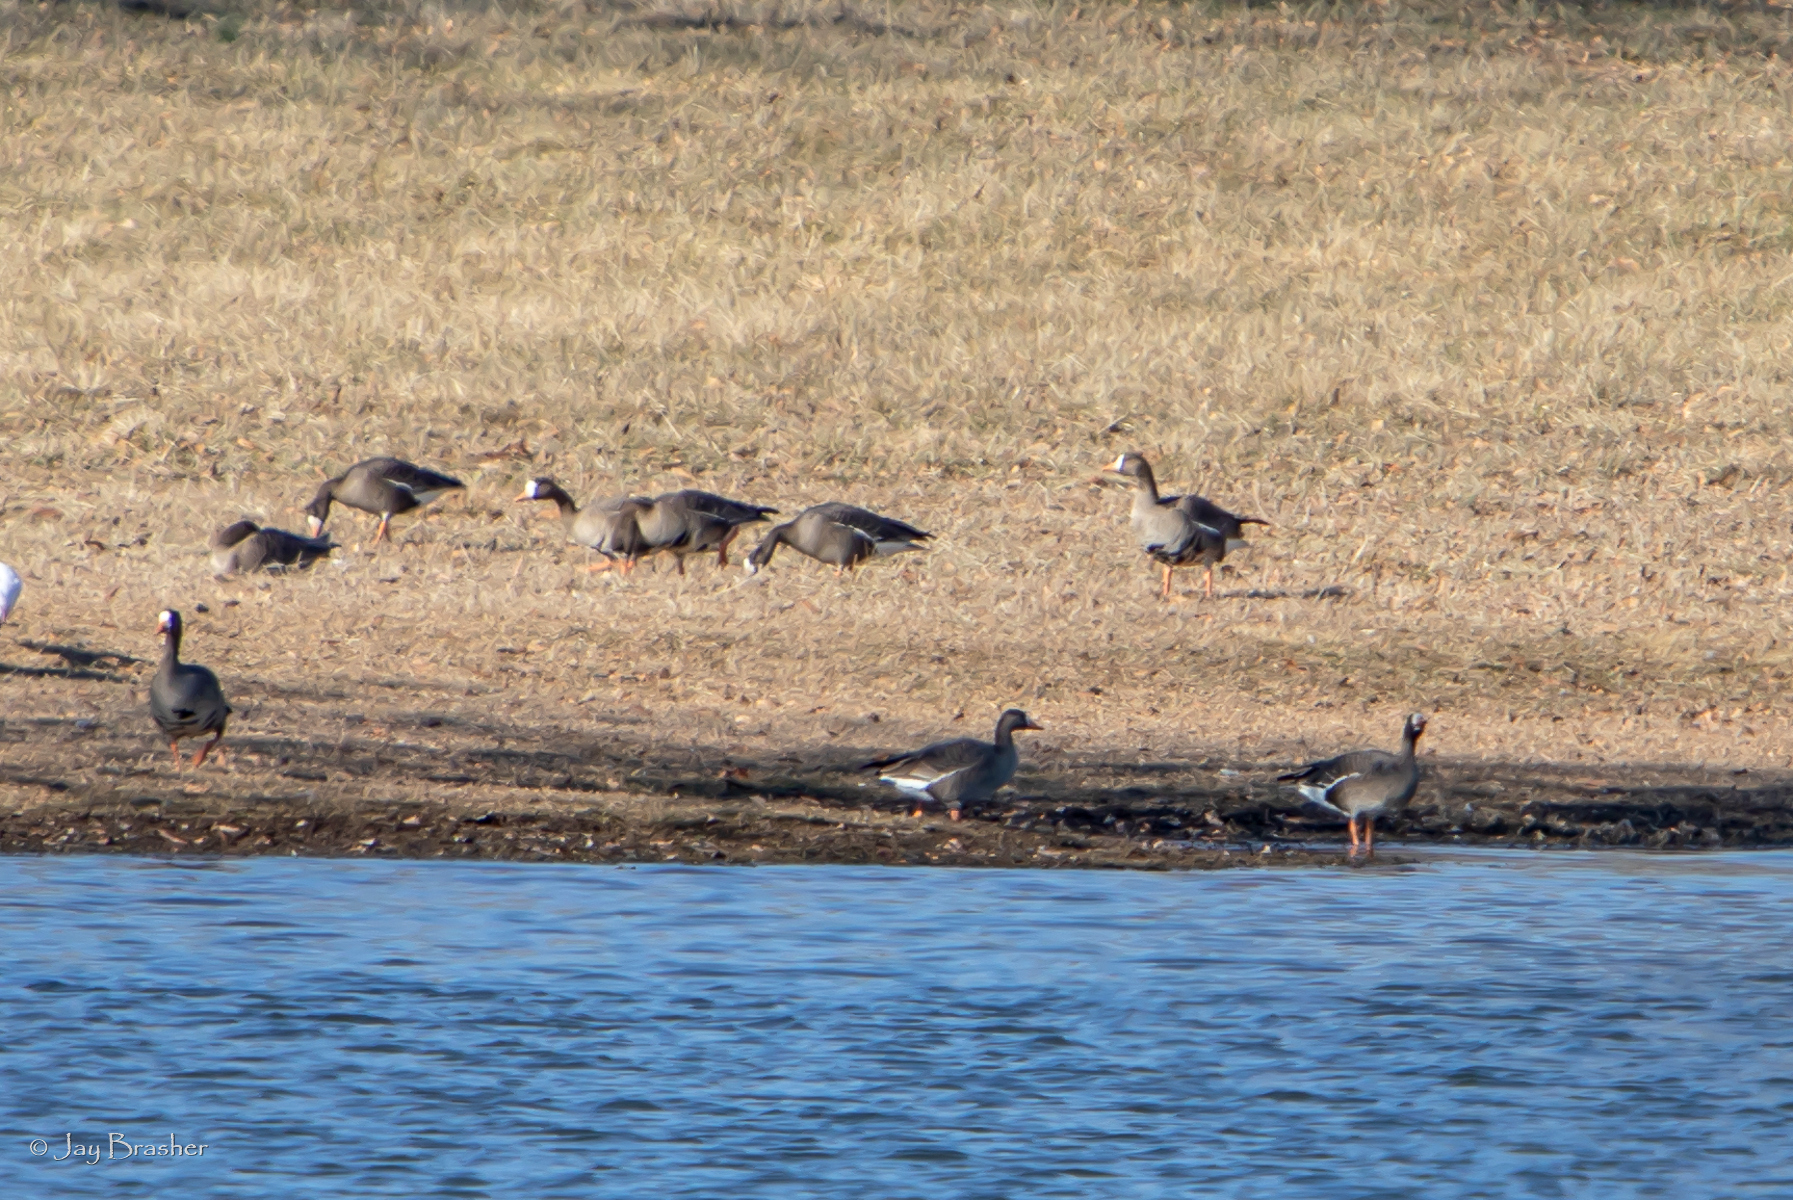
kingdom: Animalia
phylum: Chordata
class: Aves
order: Anseriformes
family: Anatidae
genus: Anser
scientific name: Anser albifrons
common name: Greater white-fronted goose
